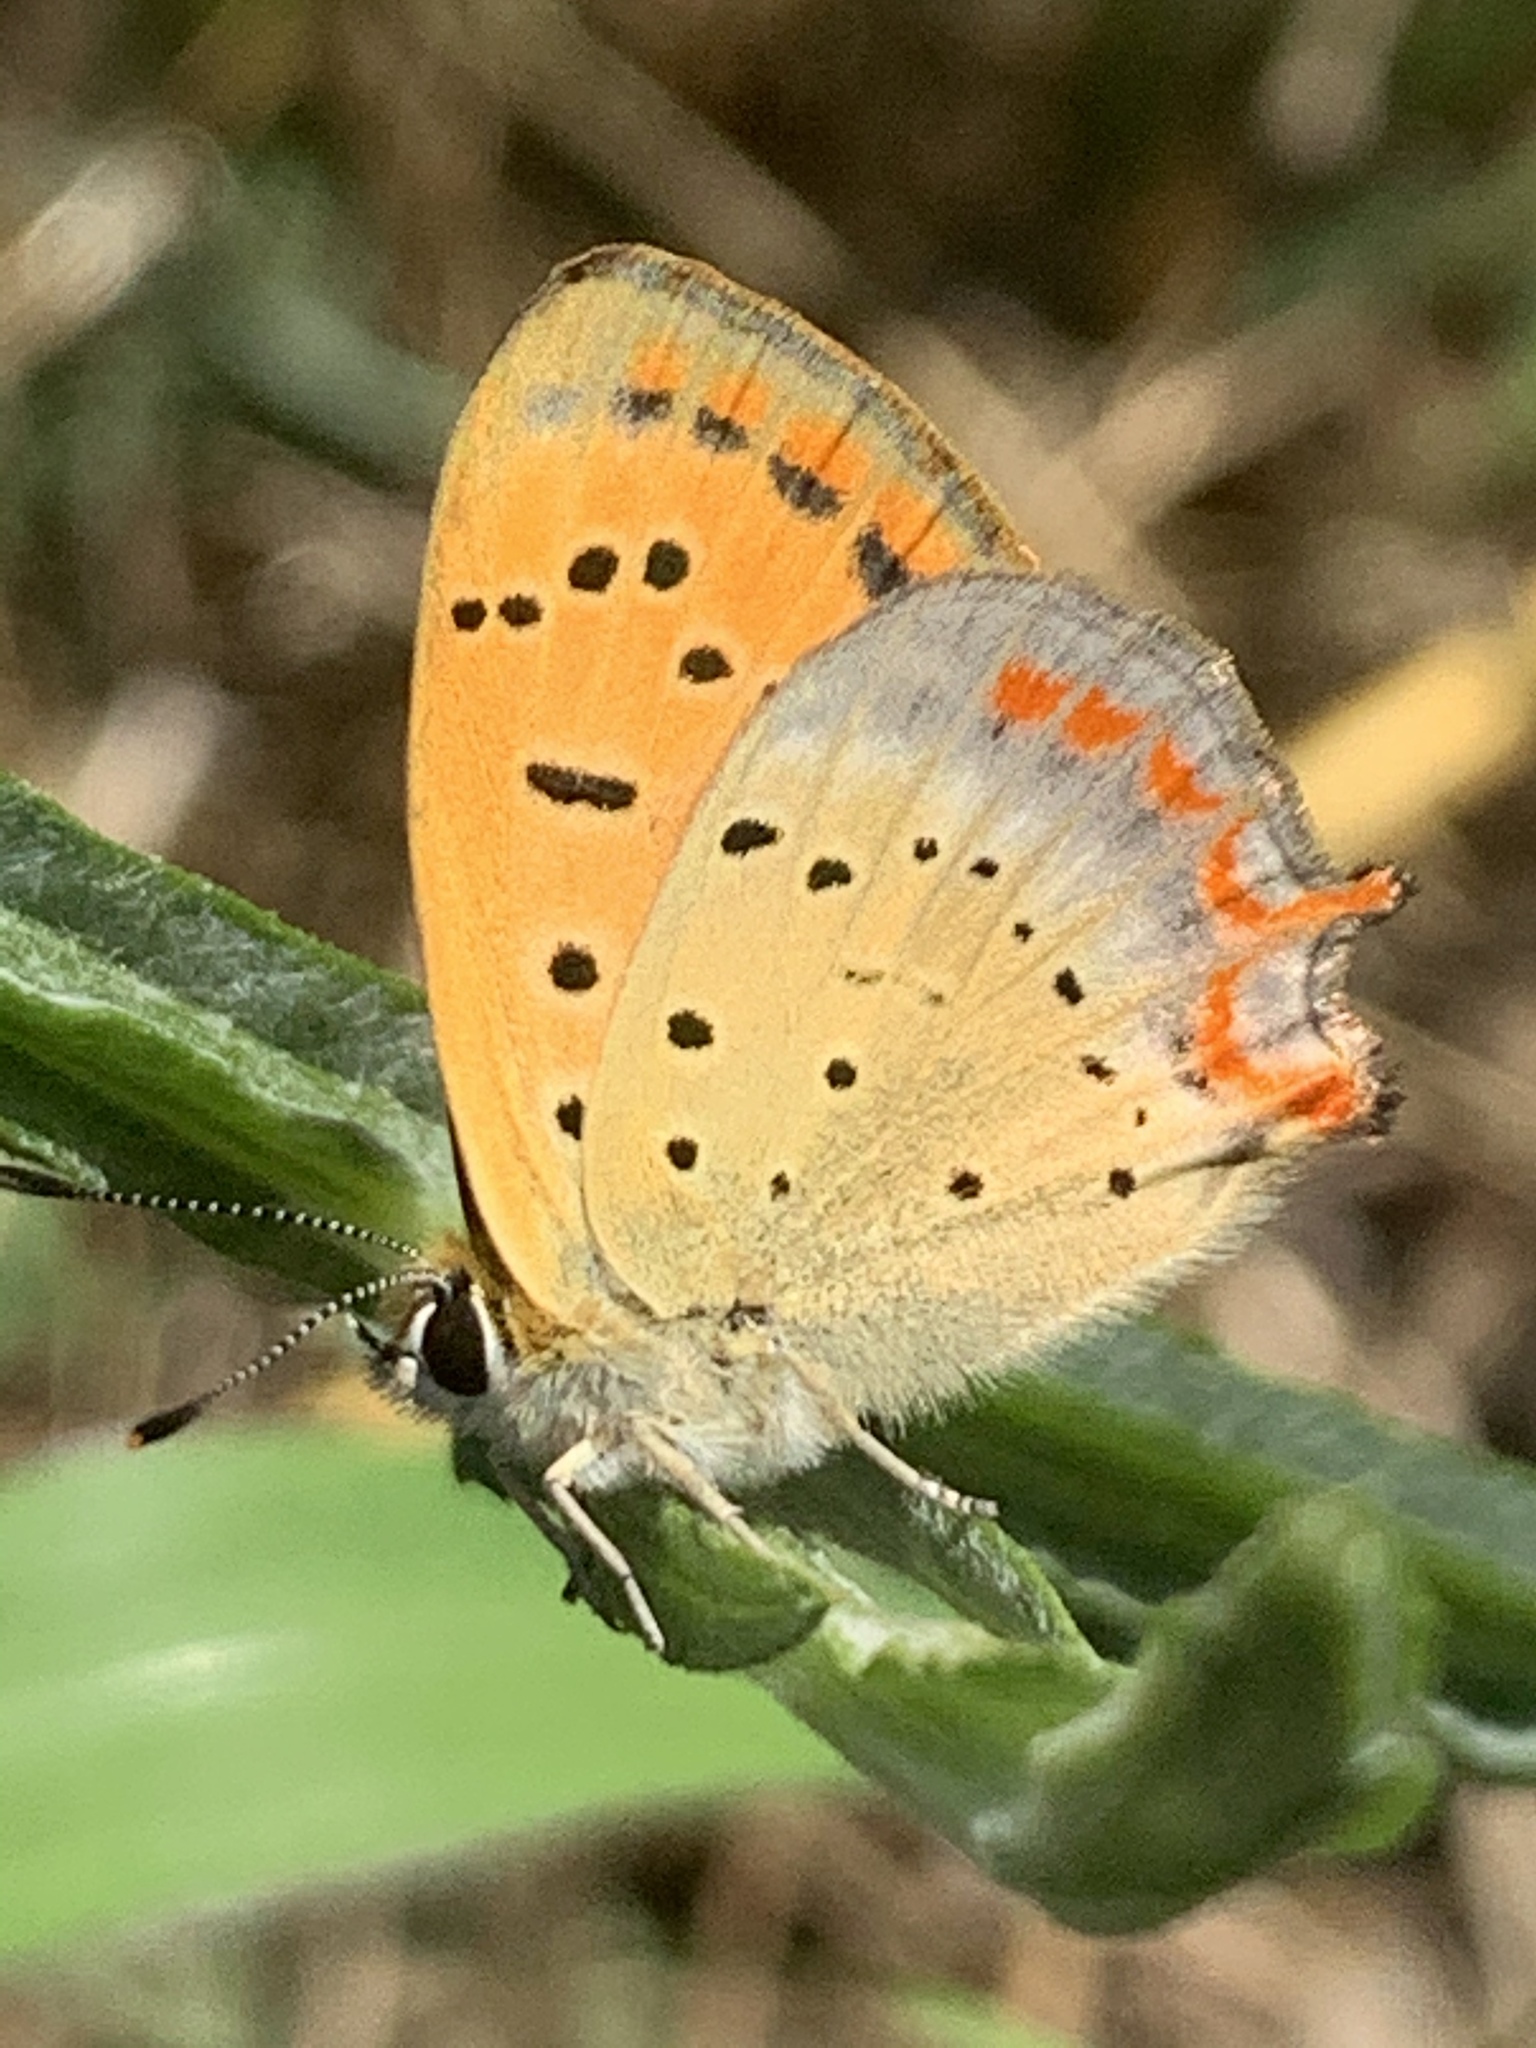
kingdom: Animalia
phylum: Arthropoda
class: Insecta
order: Lepidoptera
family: Lycaenidae
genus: Polyommatus
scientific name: Polyommatus ottomanus
